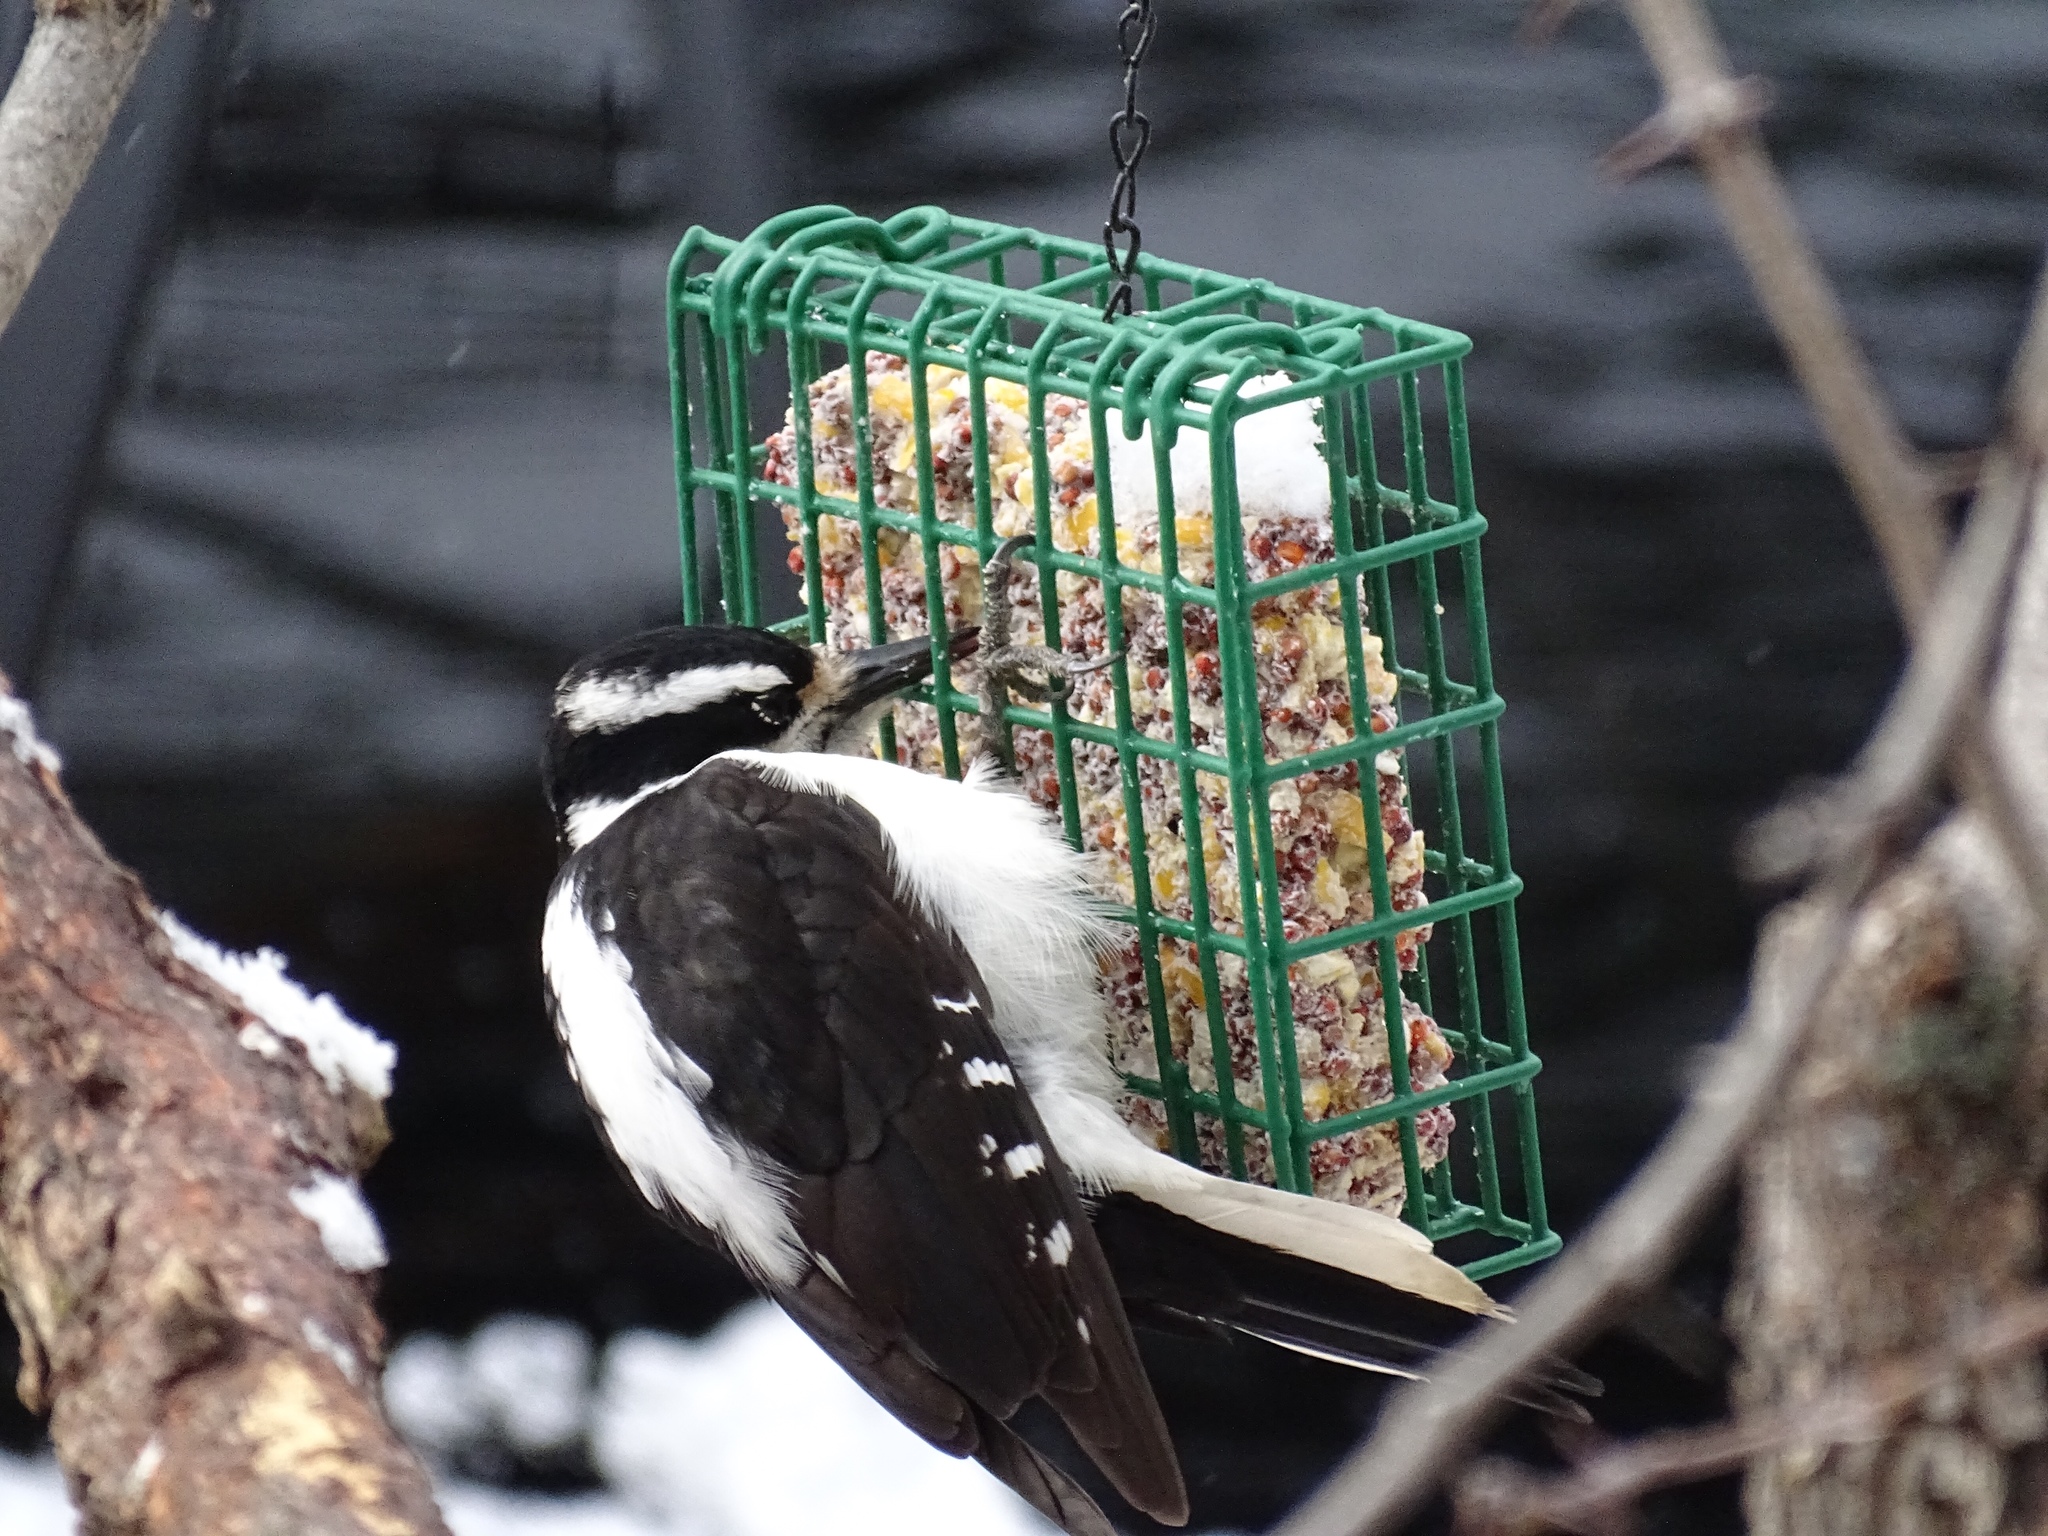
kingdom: Animalia
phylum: Chordata
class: Aves
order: Piciformes
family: Picidae
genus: Leuconotopicus
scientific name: Leuconotopicus villosus
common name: Hairy woodpecker
